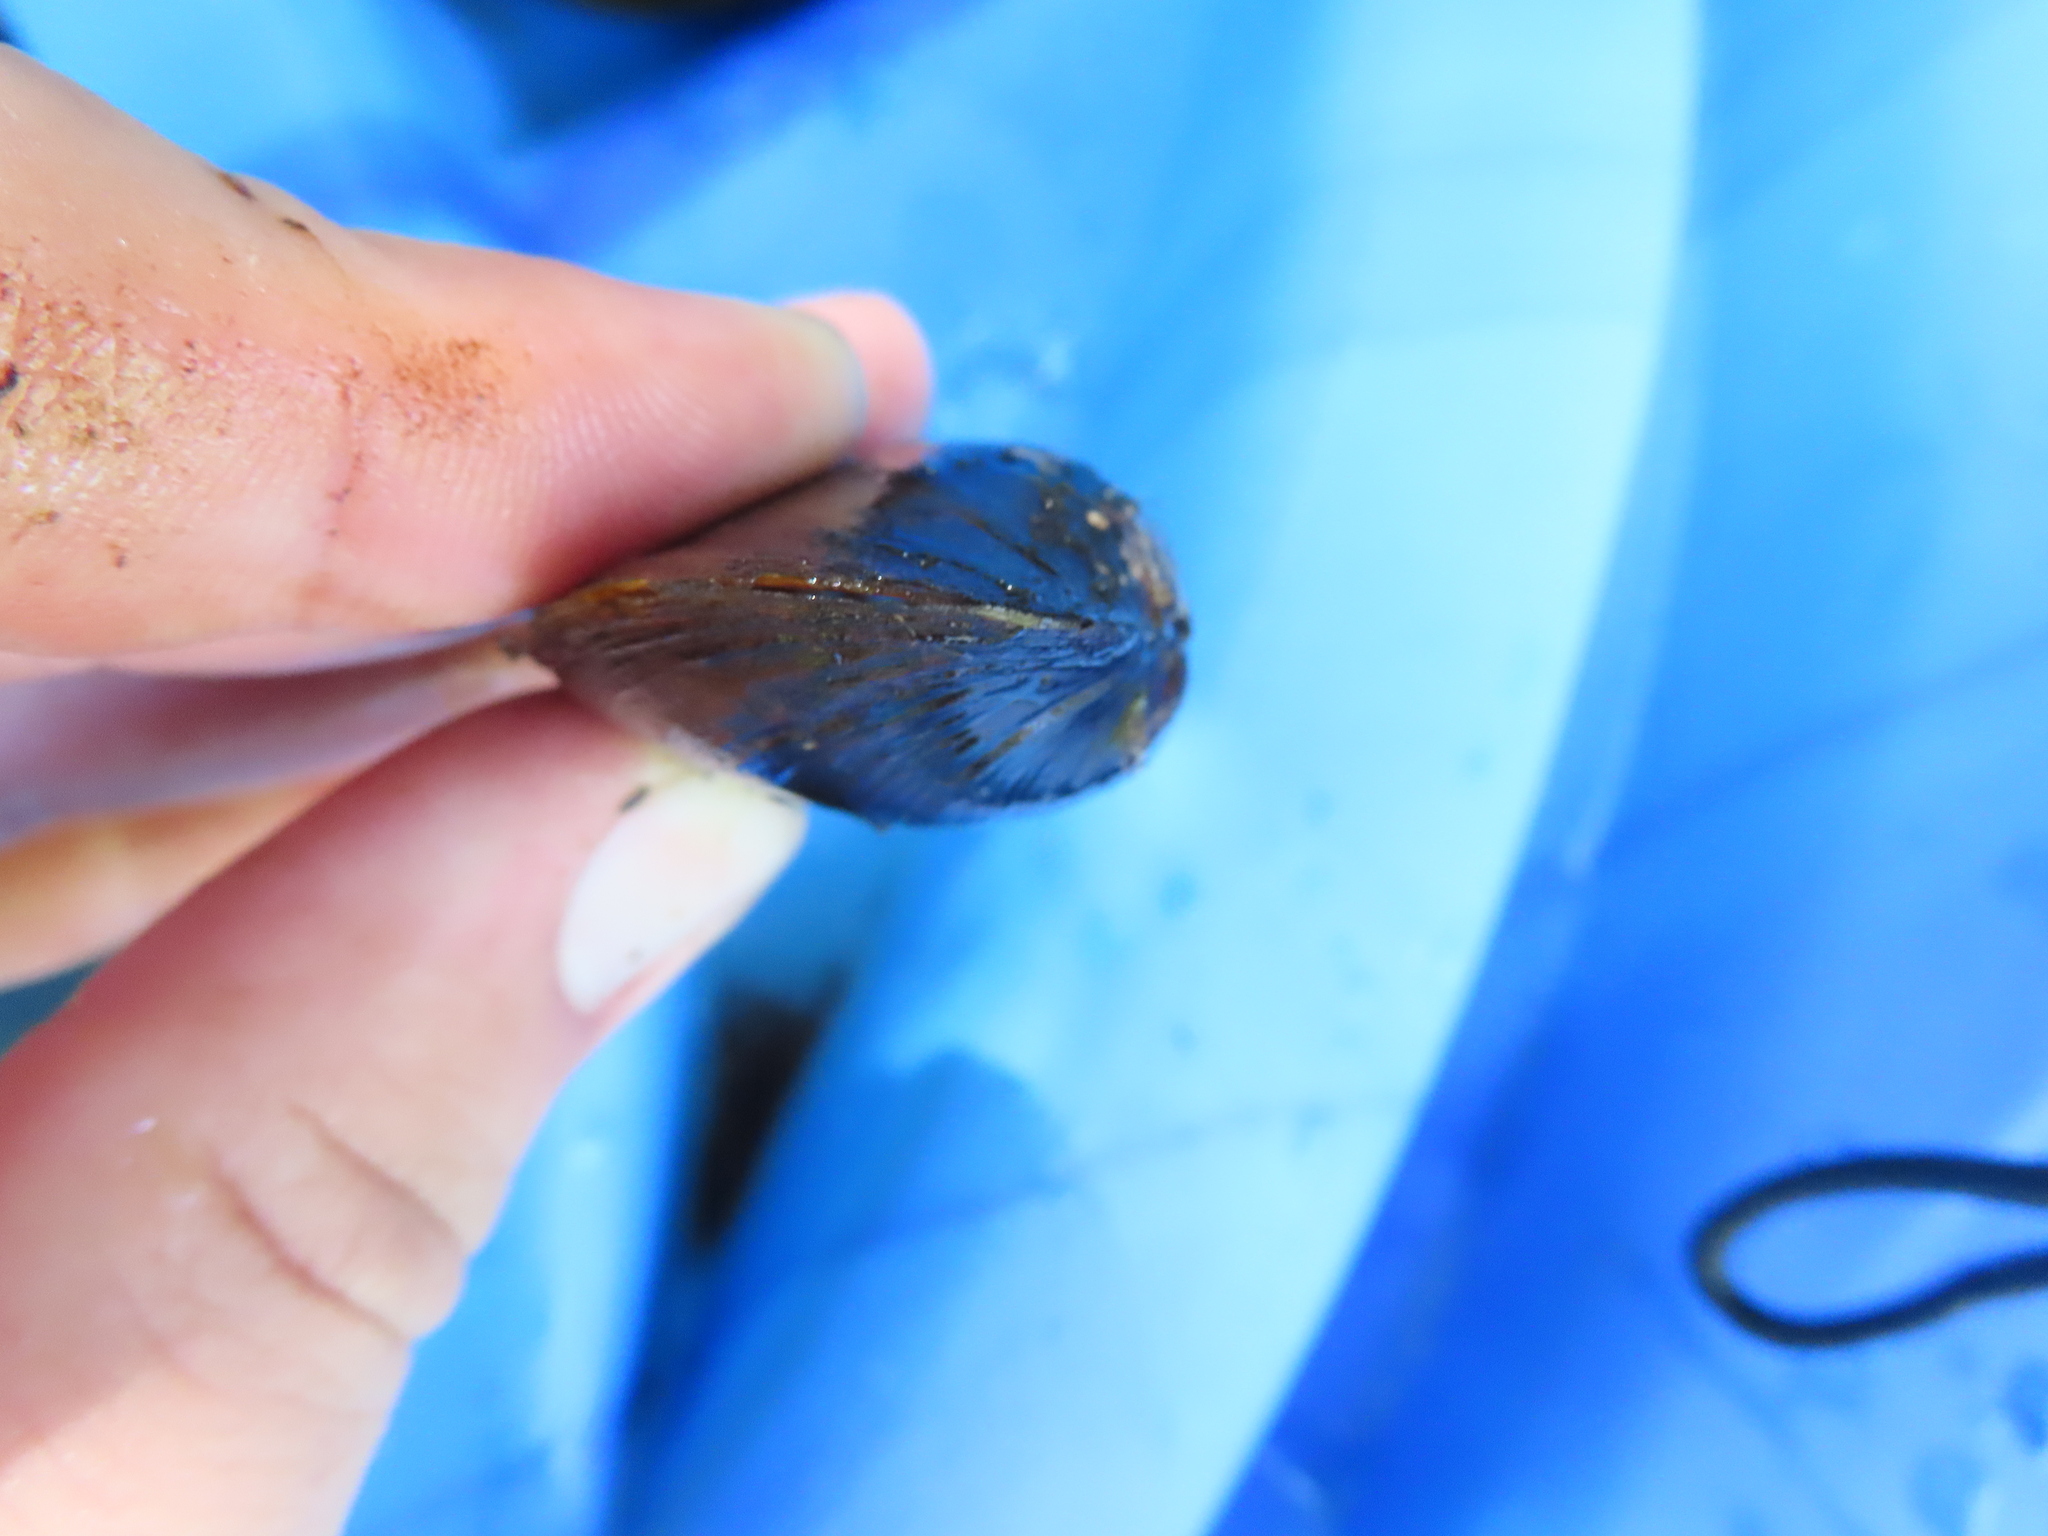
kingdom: Animalia
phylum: Mollusca
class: Bivalvia
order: Unionida
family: Unionidae
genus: Cambarunio
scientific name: Cambarunio iris
